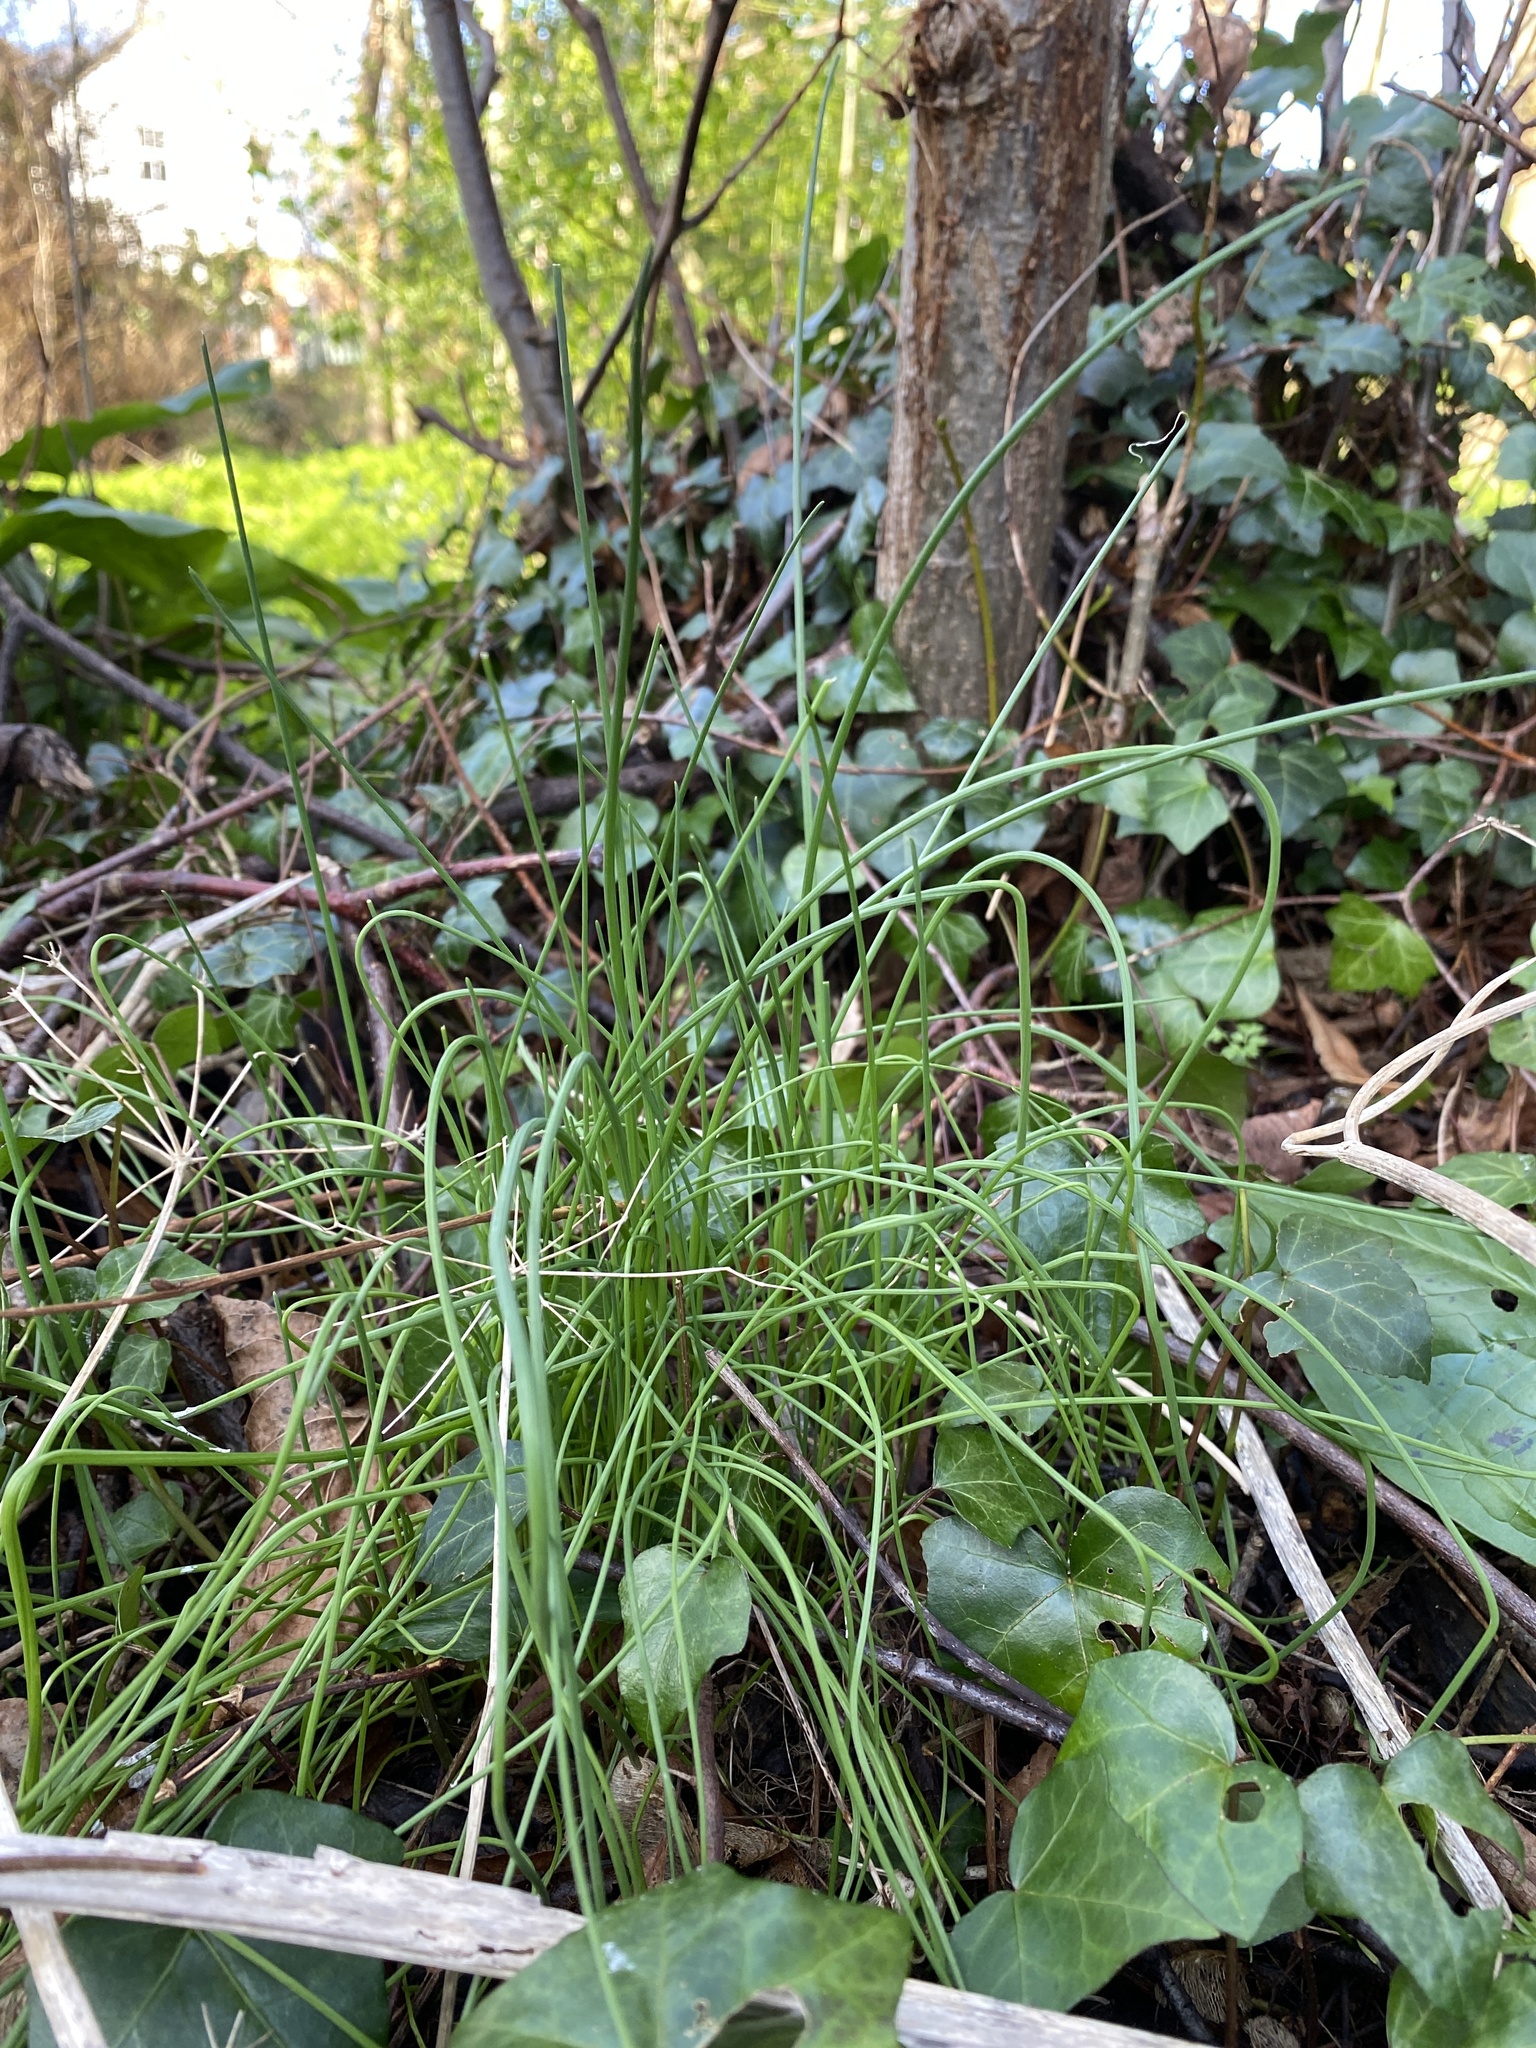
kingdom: Plantae
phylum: Tracheophyta
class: Liliopsida
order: Asparagales
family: Amaryllidaceae
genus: Allium
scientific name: Allium vineale
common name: Crow garlic
